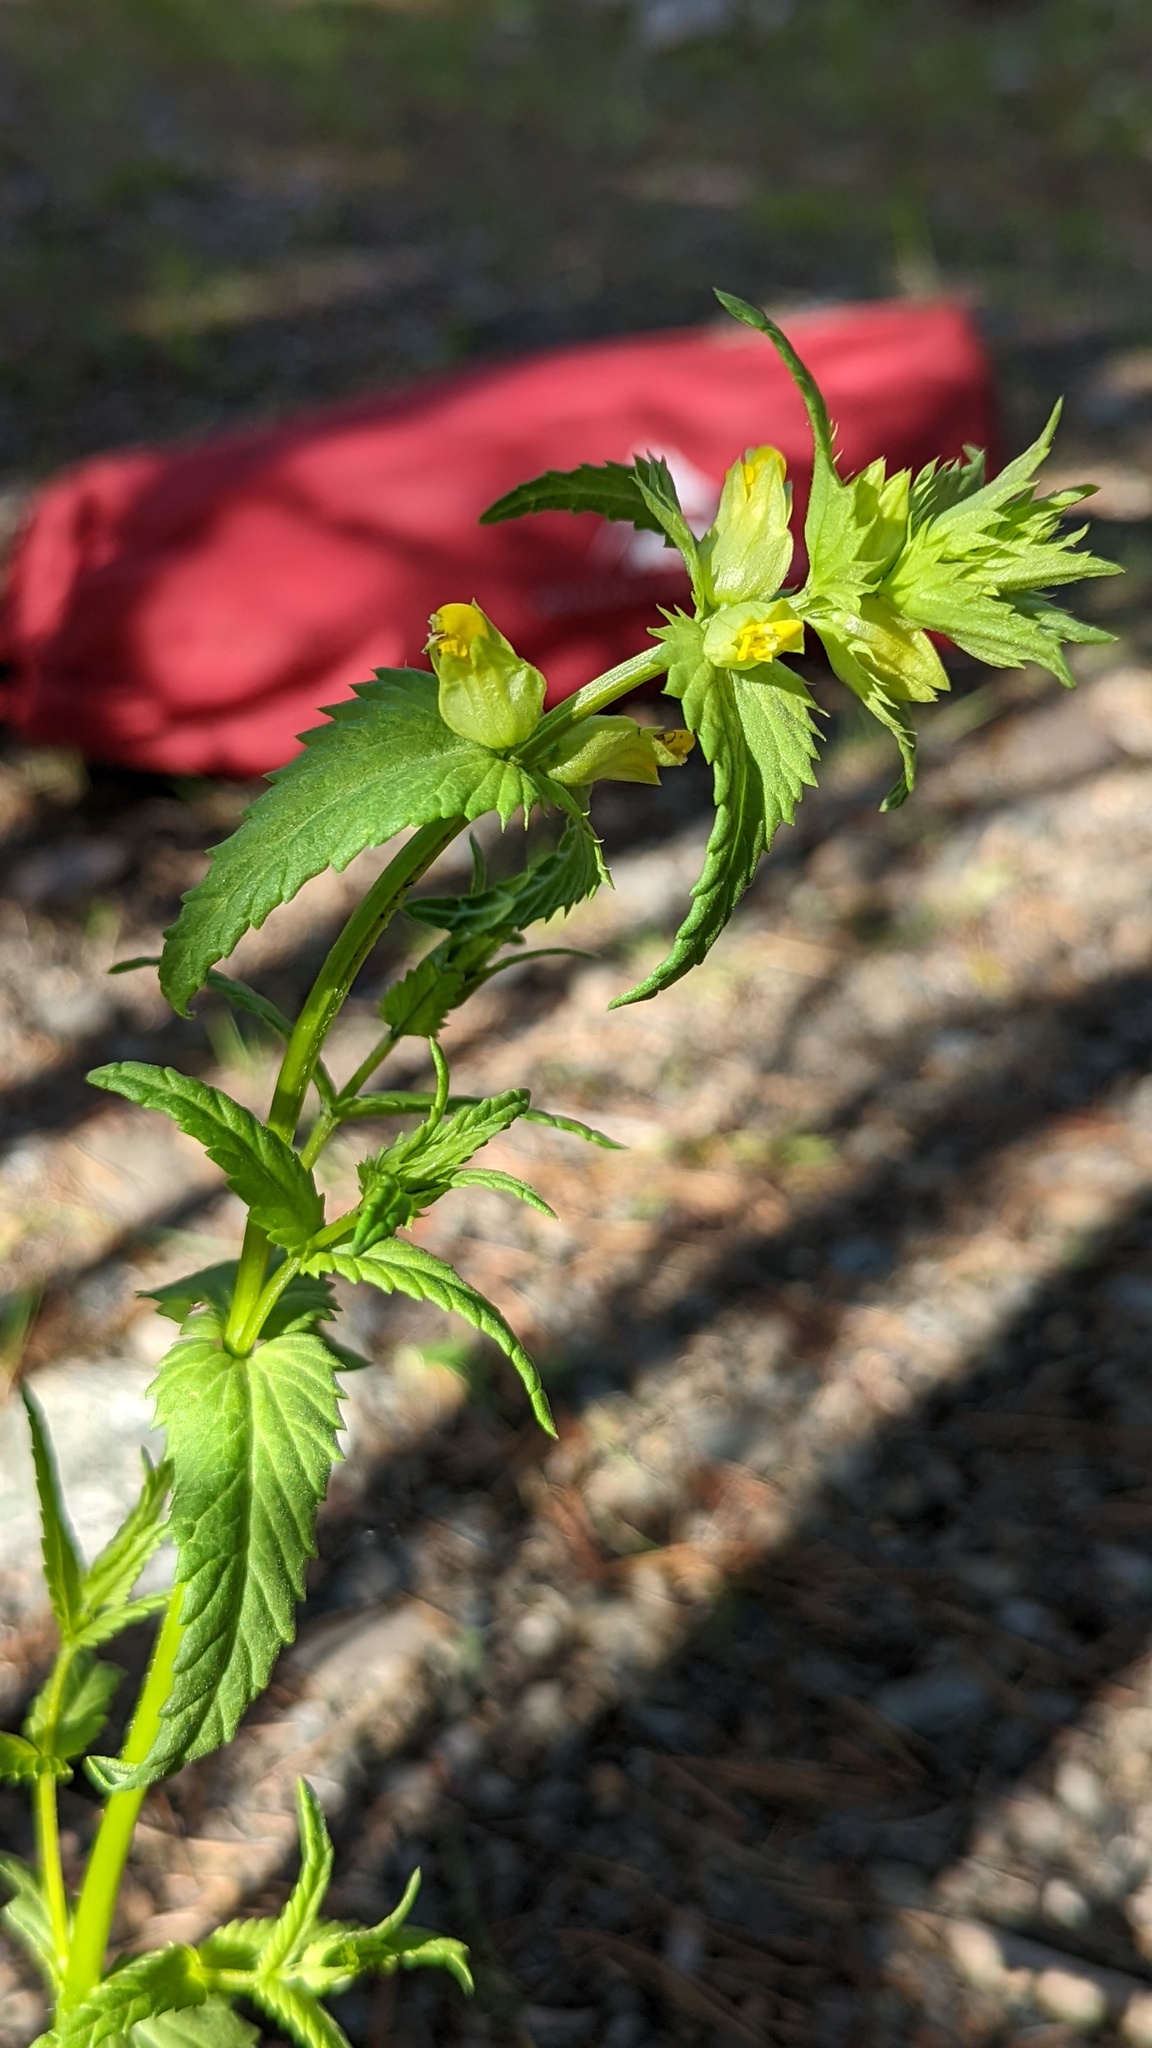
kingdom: Plantae
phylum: Tracheophyta
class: Magnoliopsida
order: Lamiales
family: Orobanchaceae
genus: Rhinanthus
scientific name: Rhinanthus groenlandicus
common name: Little yellow rattle
